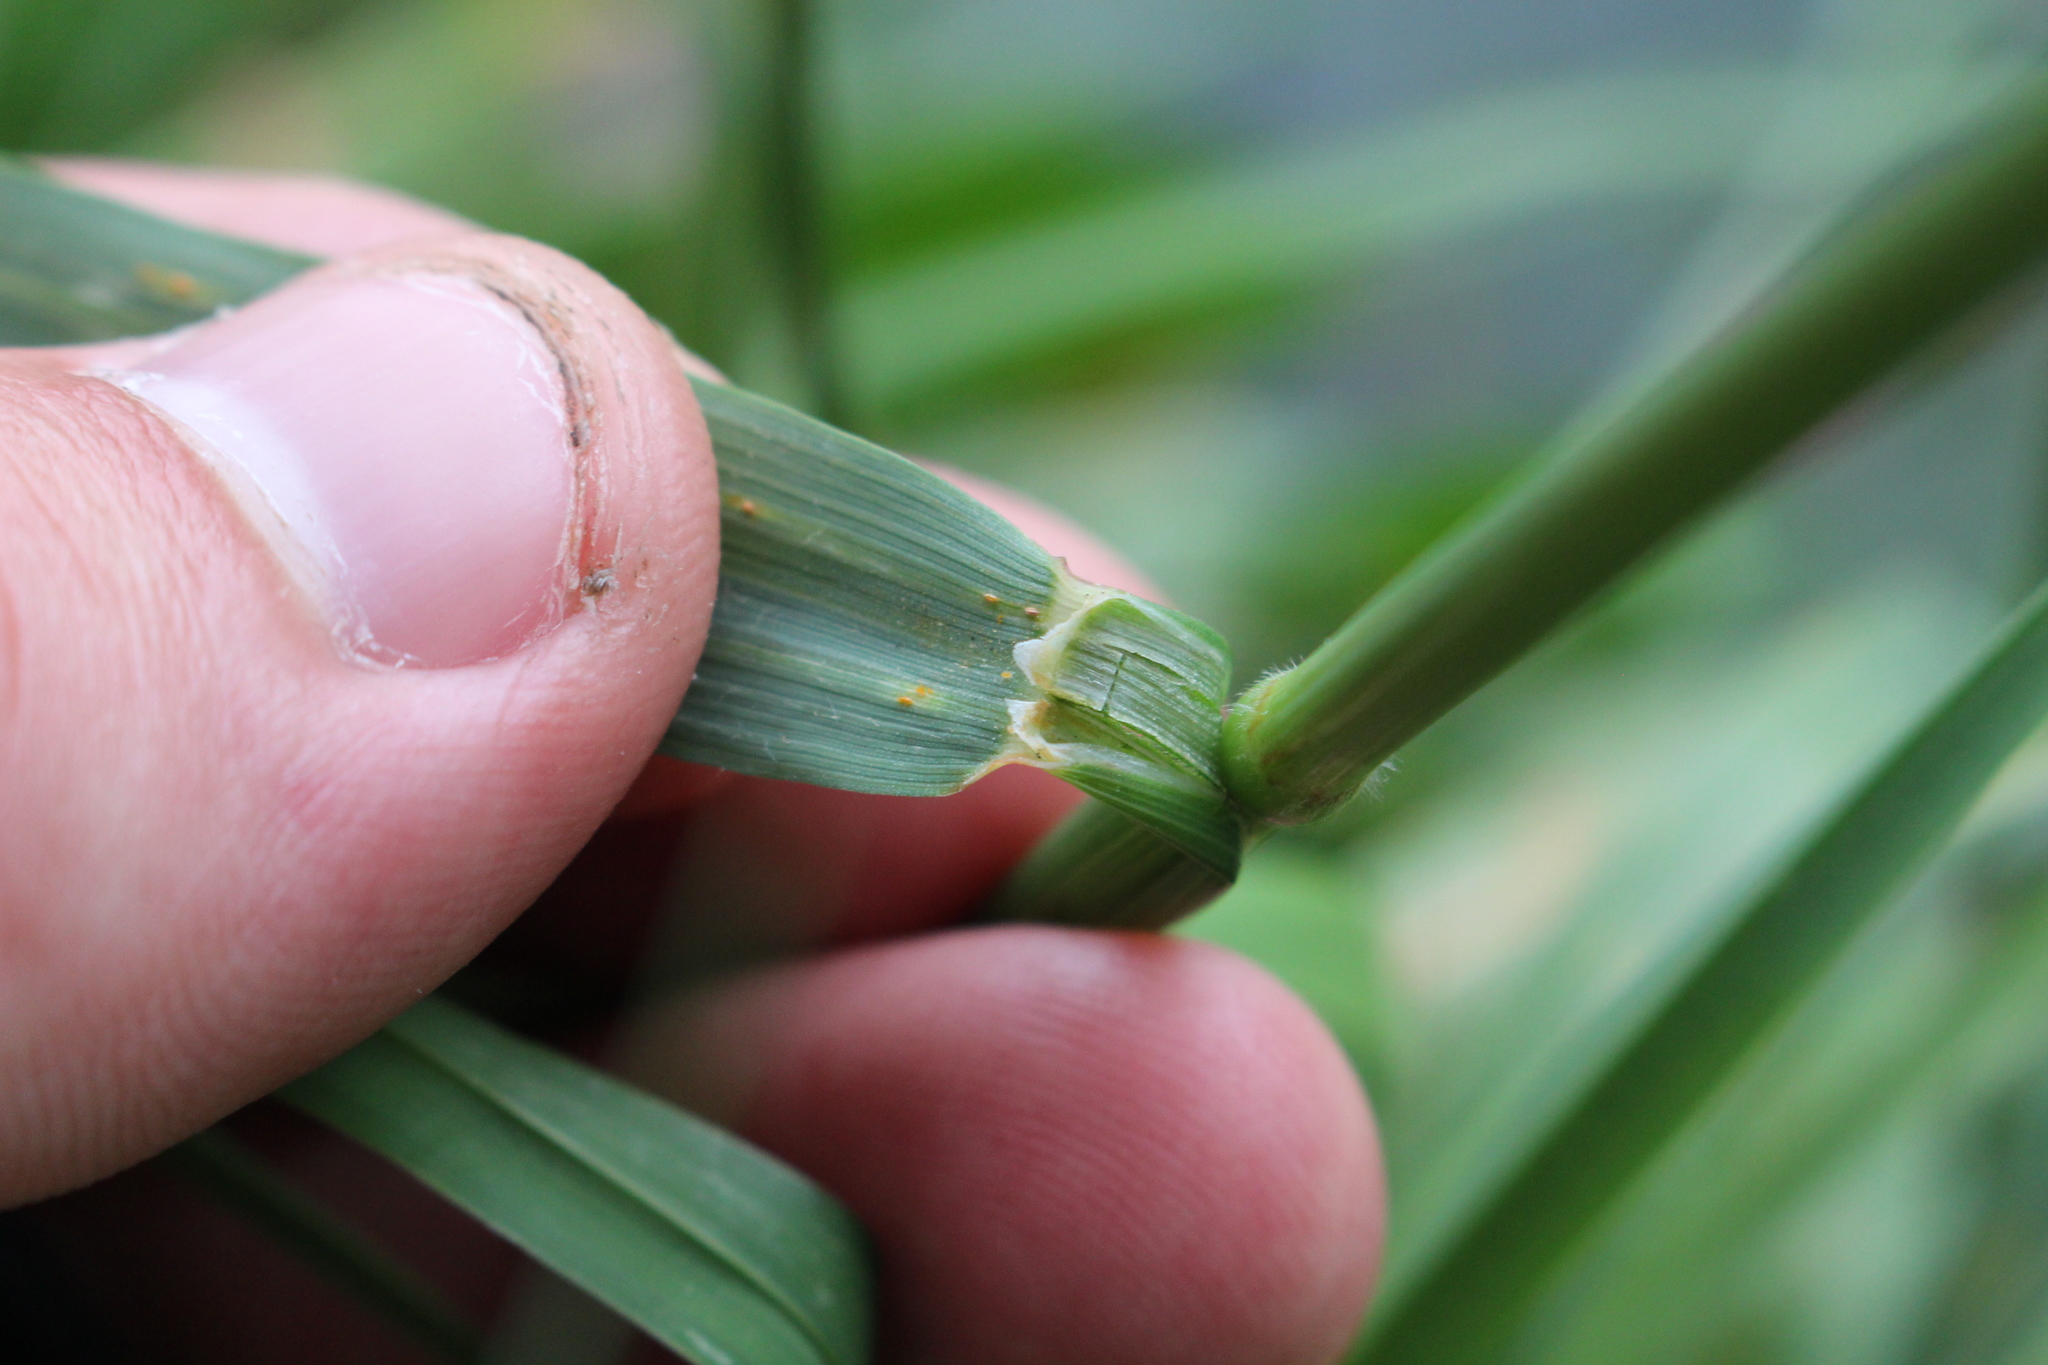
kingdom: Plantae
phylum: Tracheophyta
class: Liliopsida
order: Poales
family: Poaceae
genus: Arrhenatherum
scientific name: Arrhenatherum elatius
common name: Tall oatgrass
